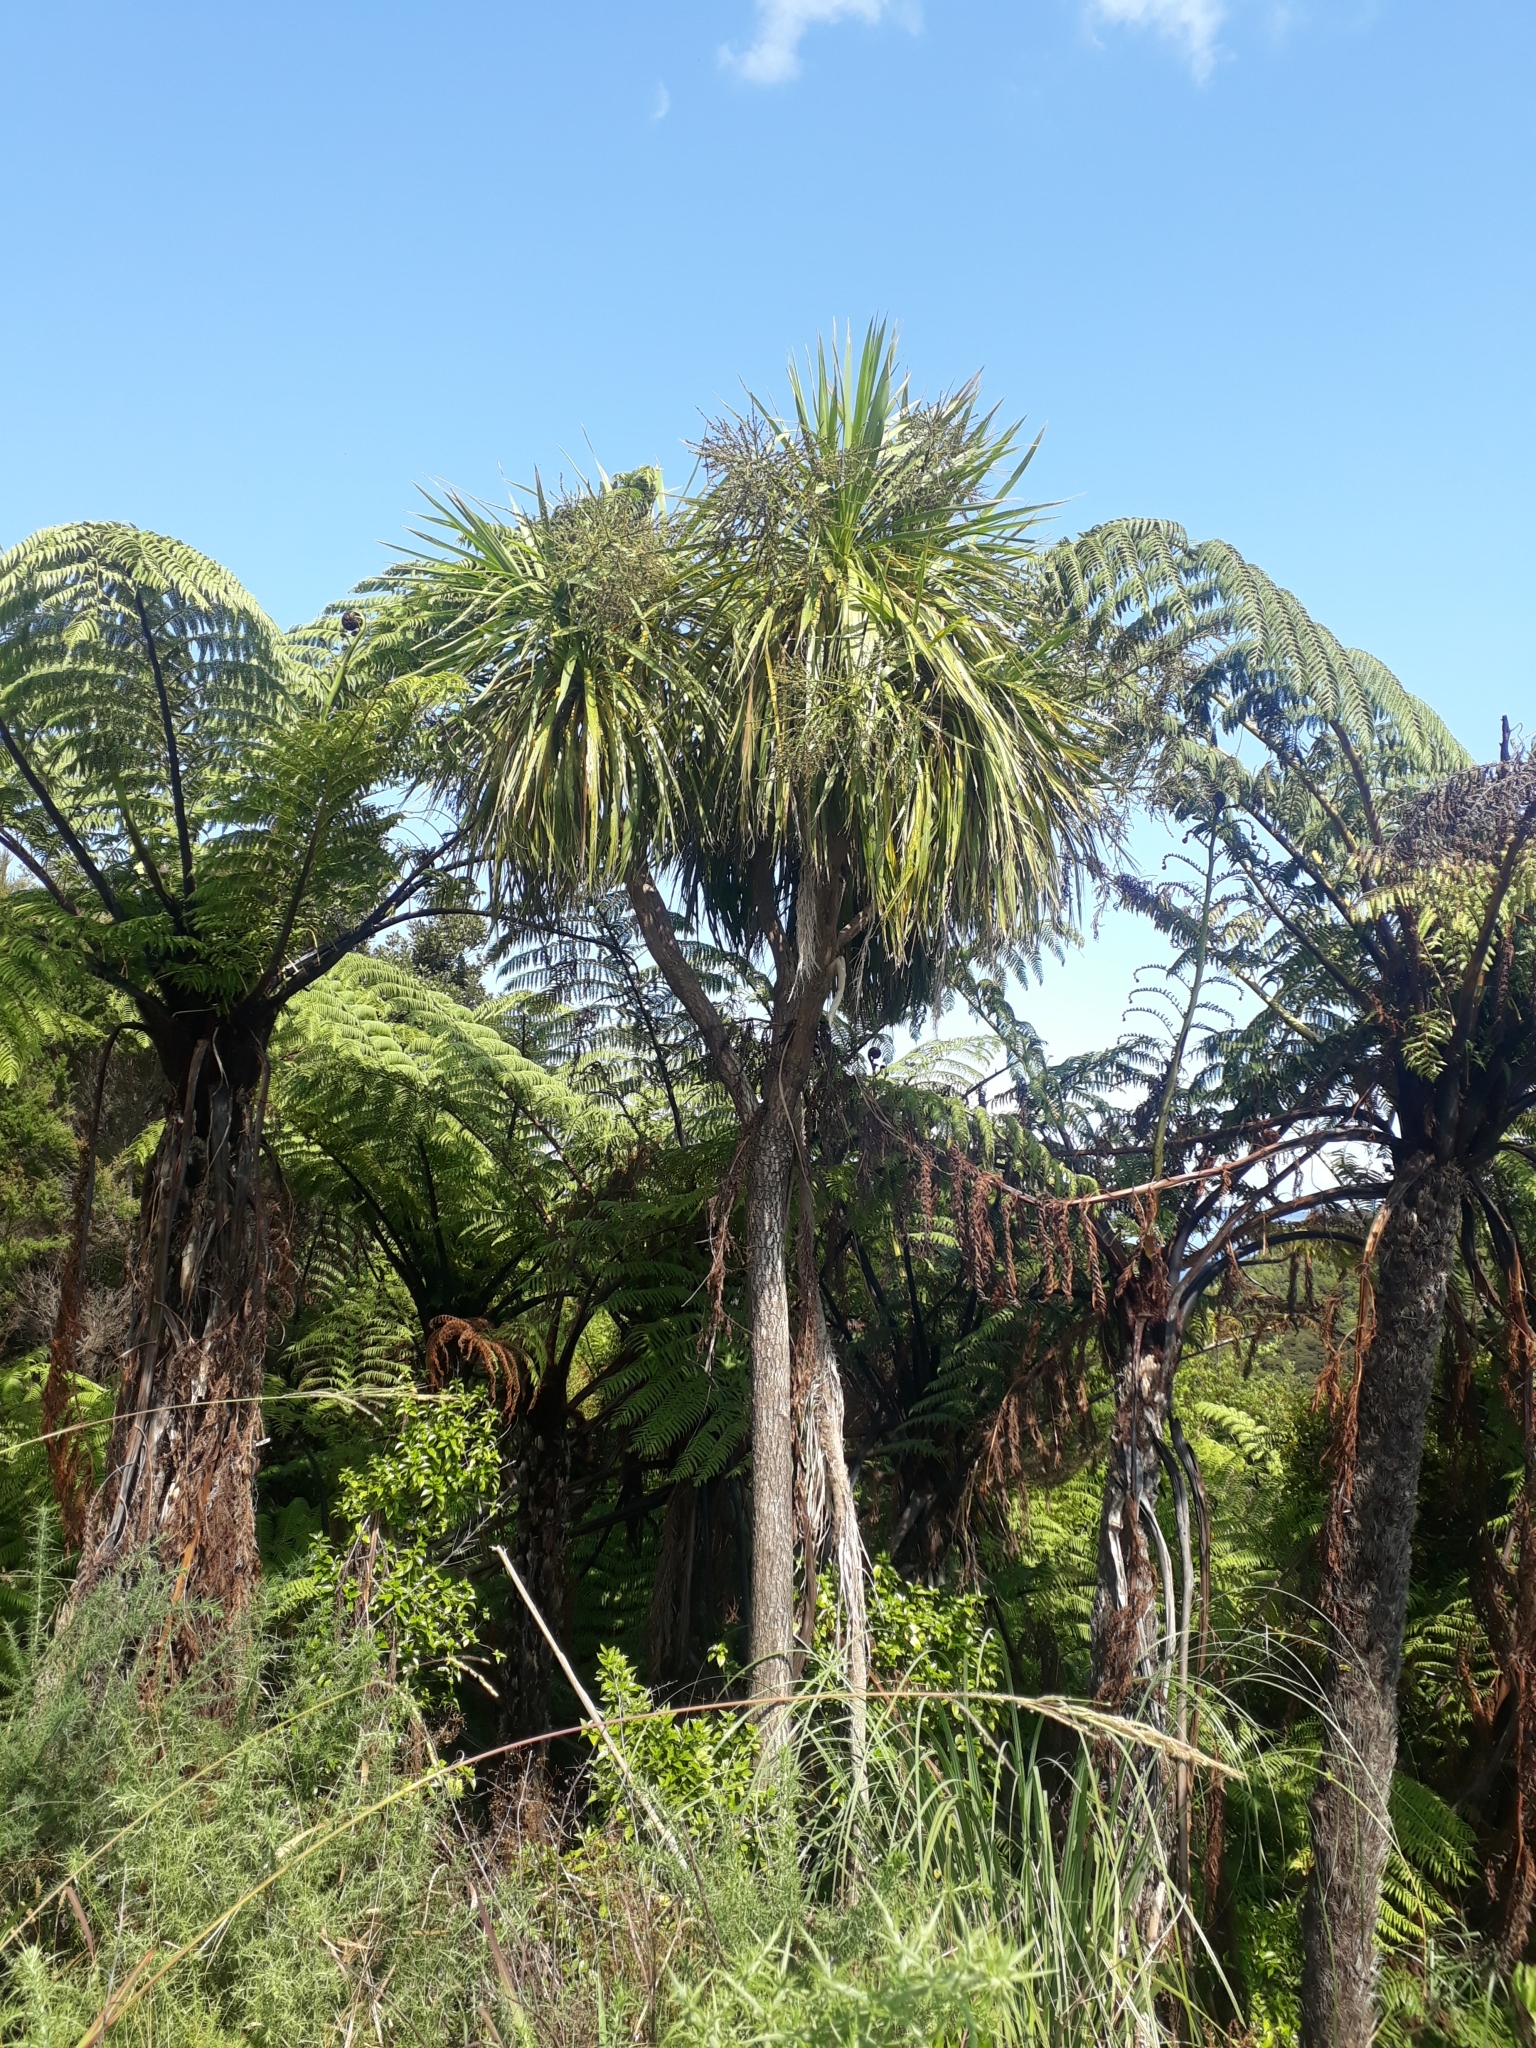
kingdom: Plantae
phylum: Tracheophyta
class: Liliopsida
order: Asparagales
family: Asparagaceae
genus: Cordyline
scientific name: Cordyline australis
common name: Cabbage-palm
